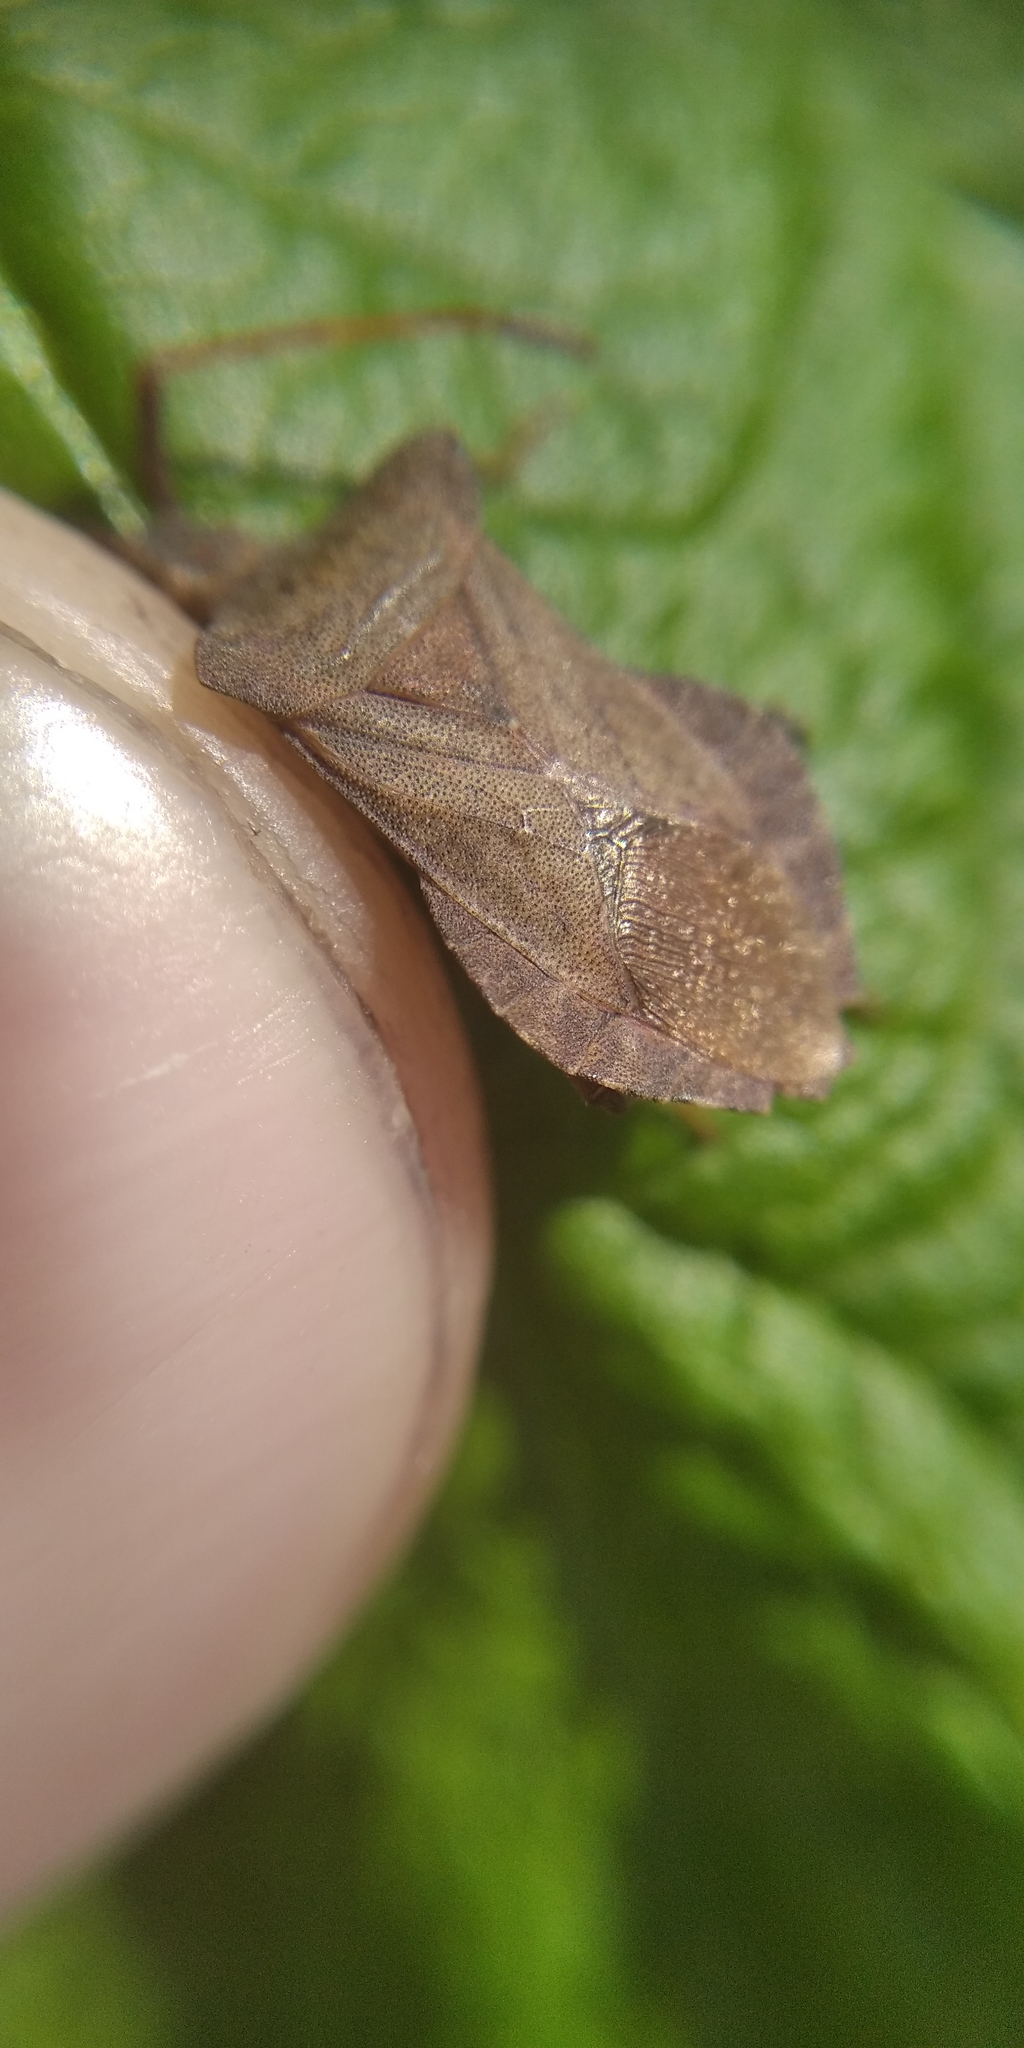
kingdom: Animalia
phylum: Arthropoda
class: Insecta
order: Hemiptera
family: Coreidae
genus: Coreus
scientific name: Coreus marginatus
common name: Dock bug
